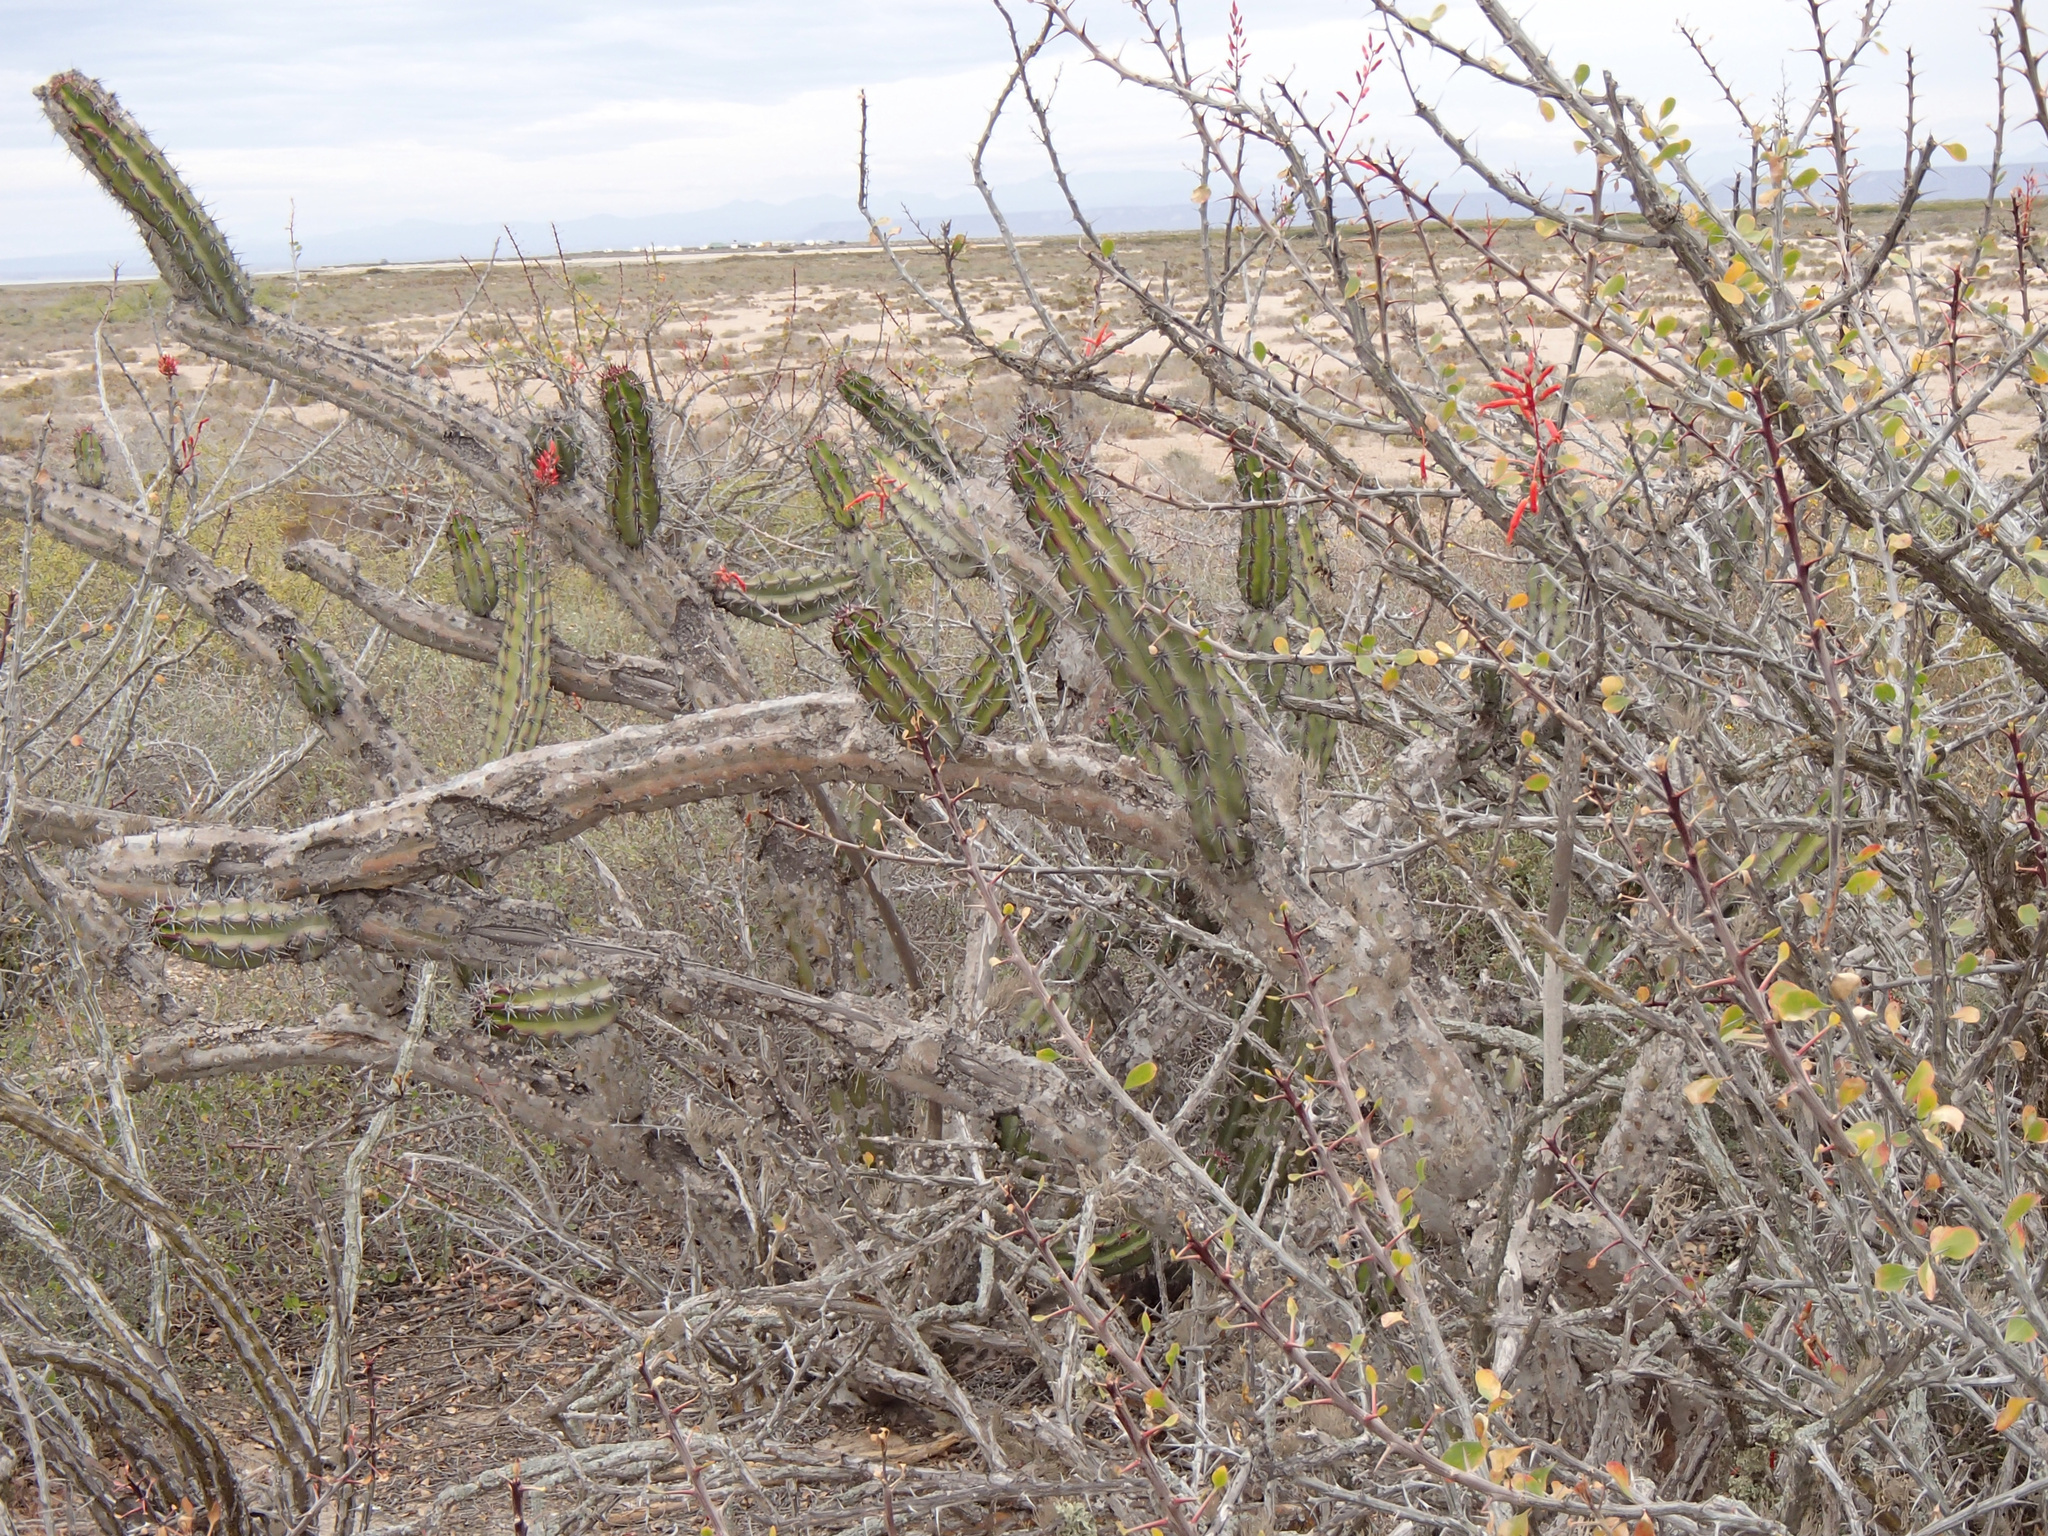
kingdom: Plantae
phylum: Tracheophyta
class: Magnoliopsida
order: Caryophyllales
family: Cactaceae
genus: Stenocereus
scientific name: Stenocereus gummosus
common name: Dagger cactus
